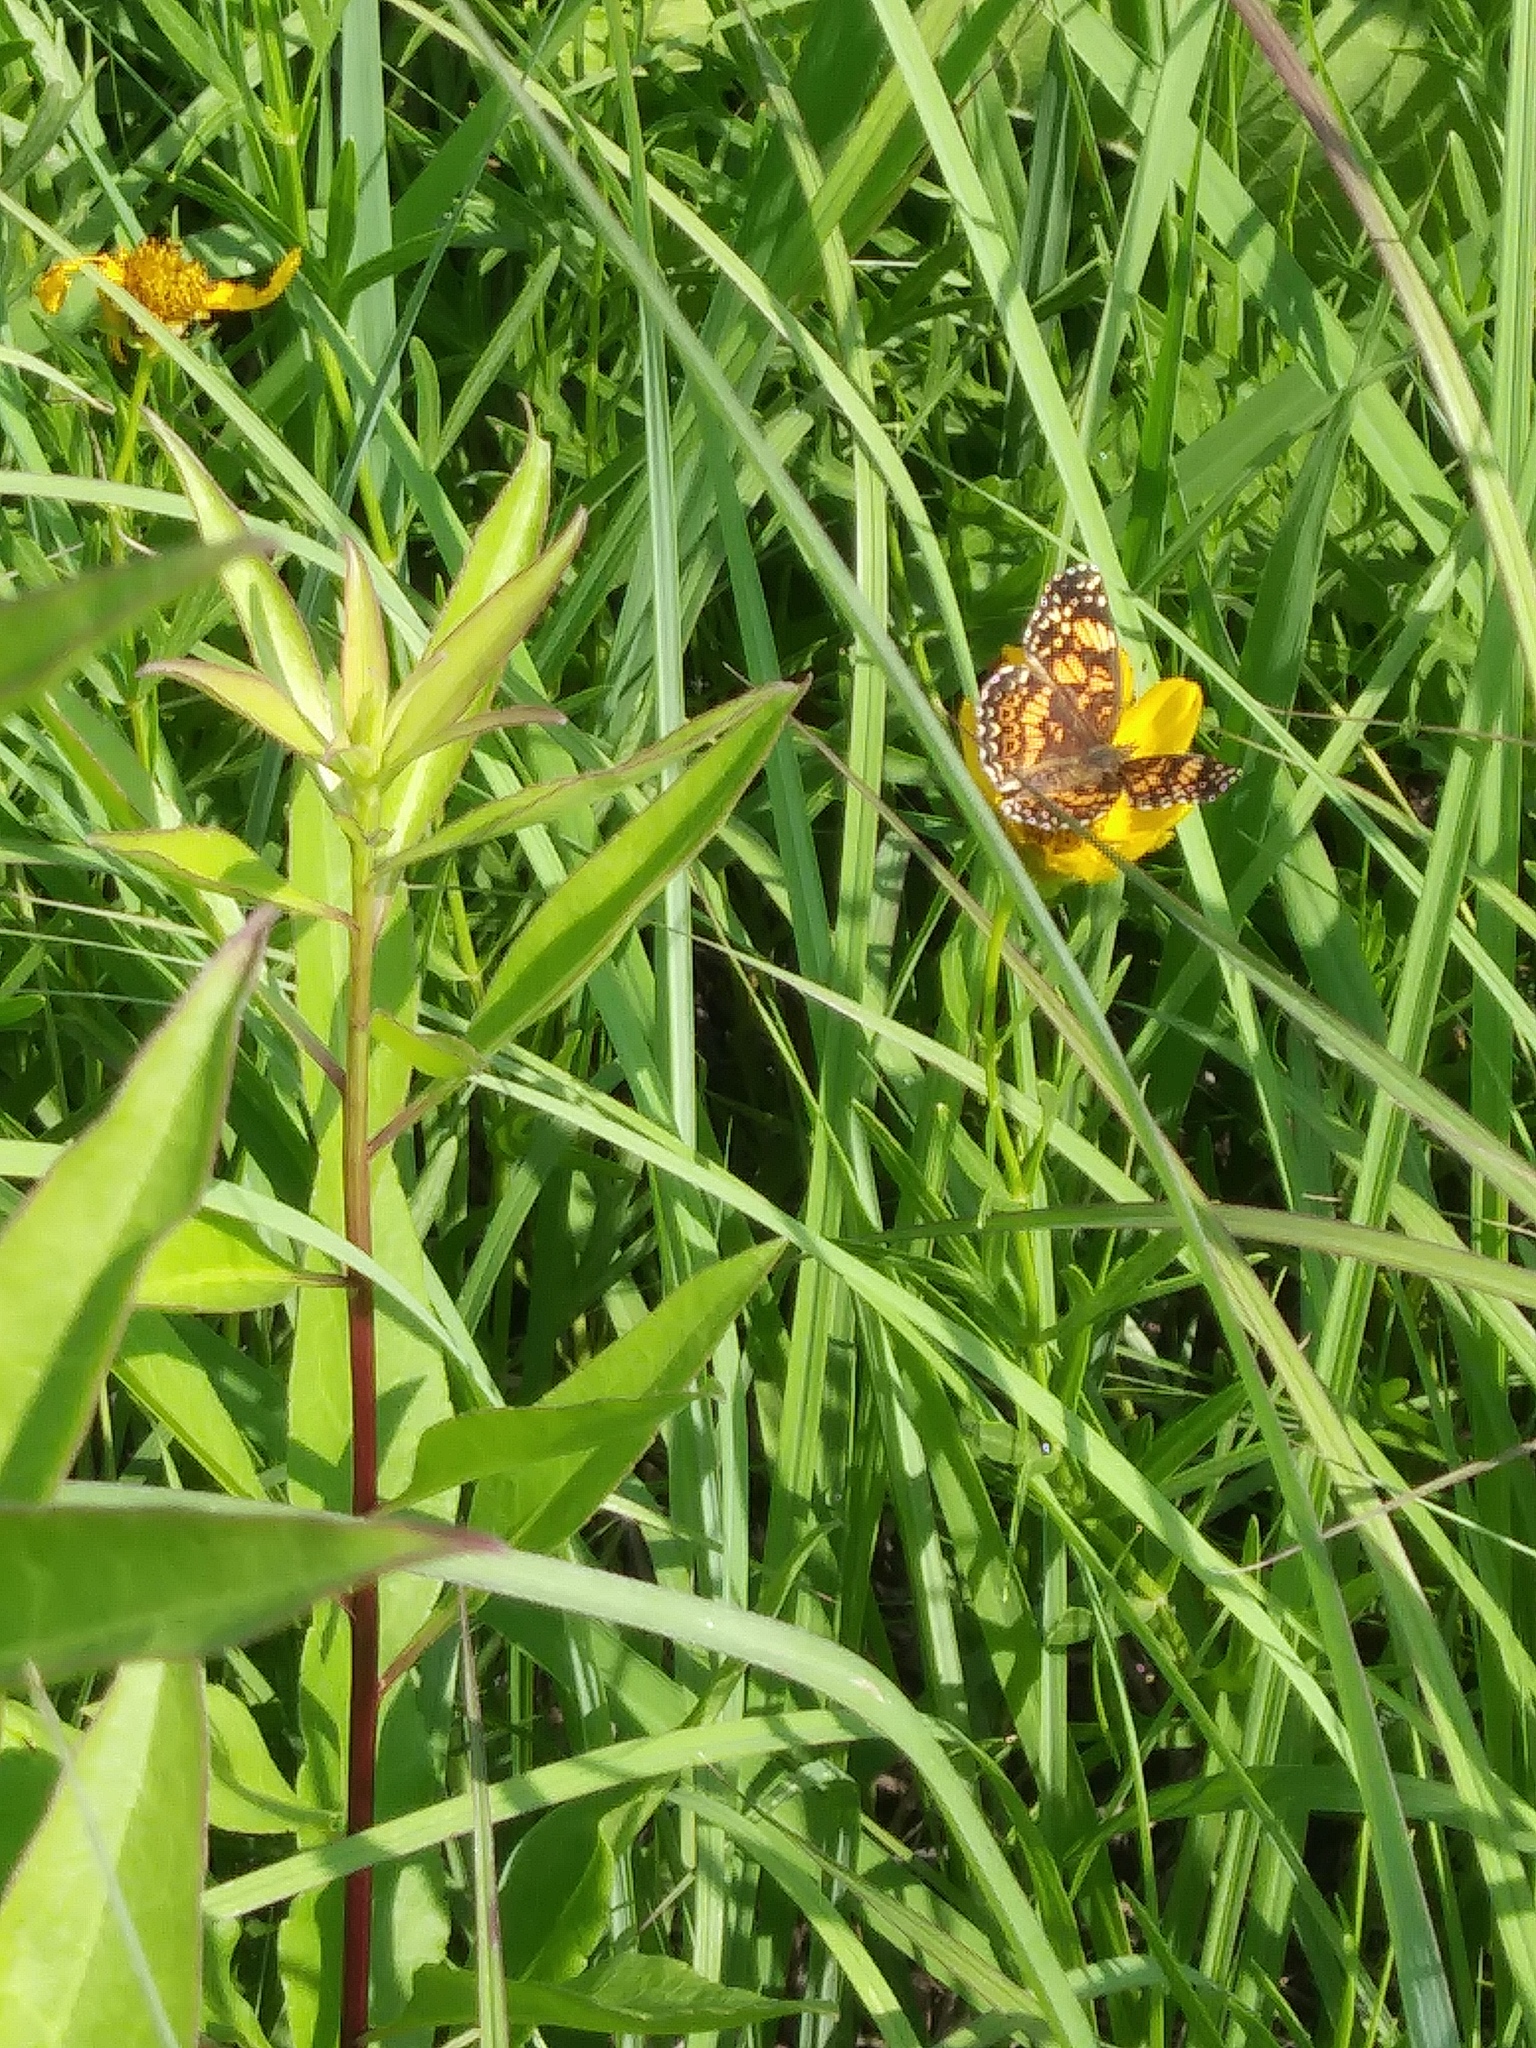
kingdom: Animalia
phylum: Arthropoda
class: Insecta
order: Lepidoptera
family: Nymphalidae
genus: Chlosyne
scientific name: Chlosyne gorgone
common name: Gorgone checkerspot
